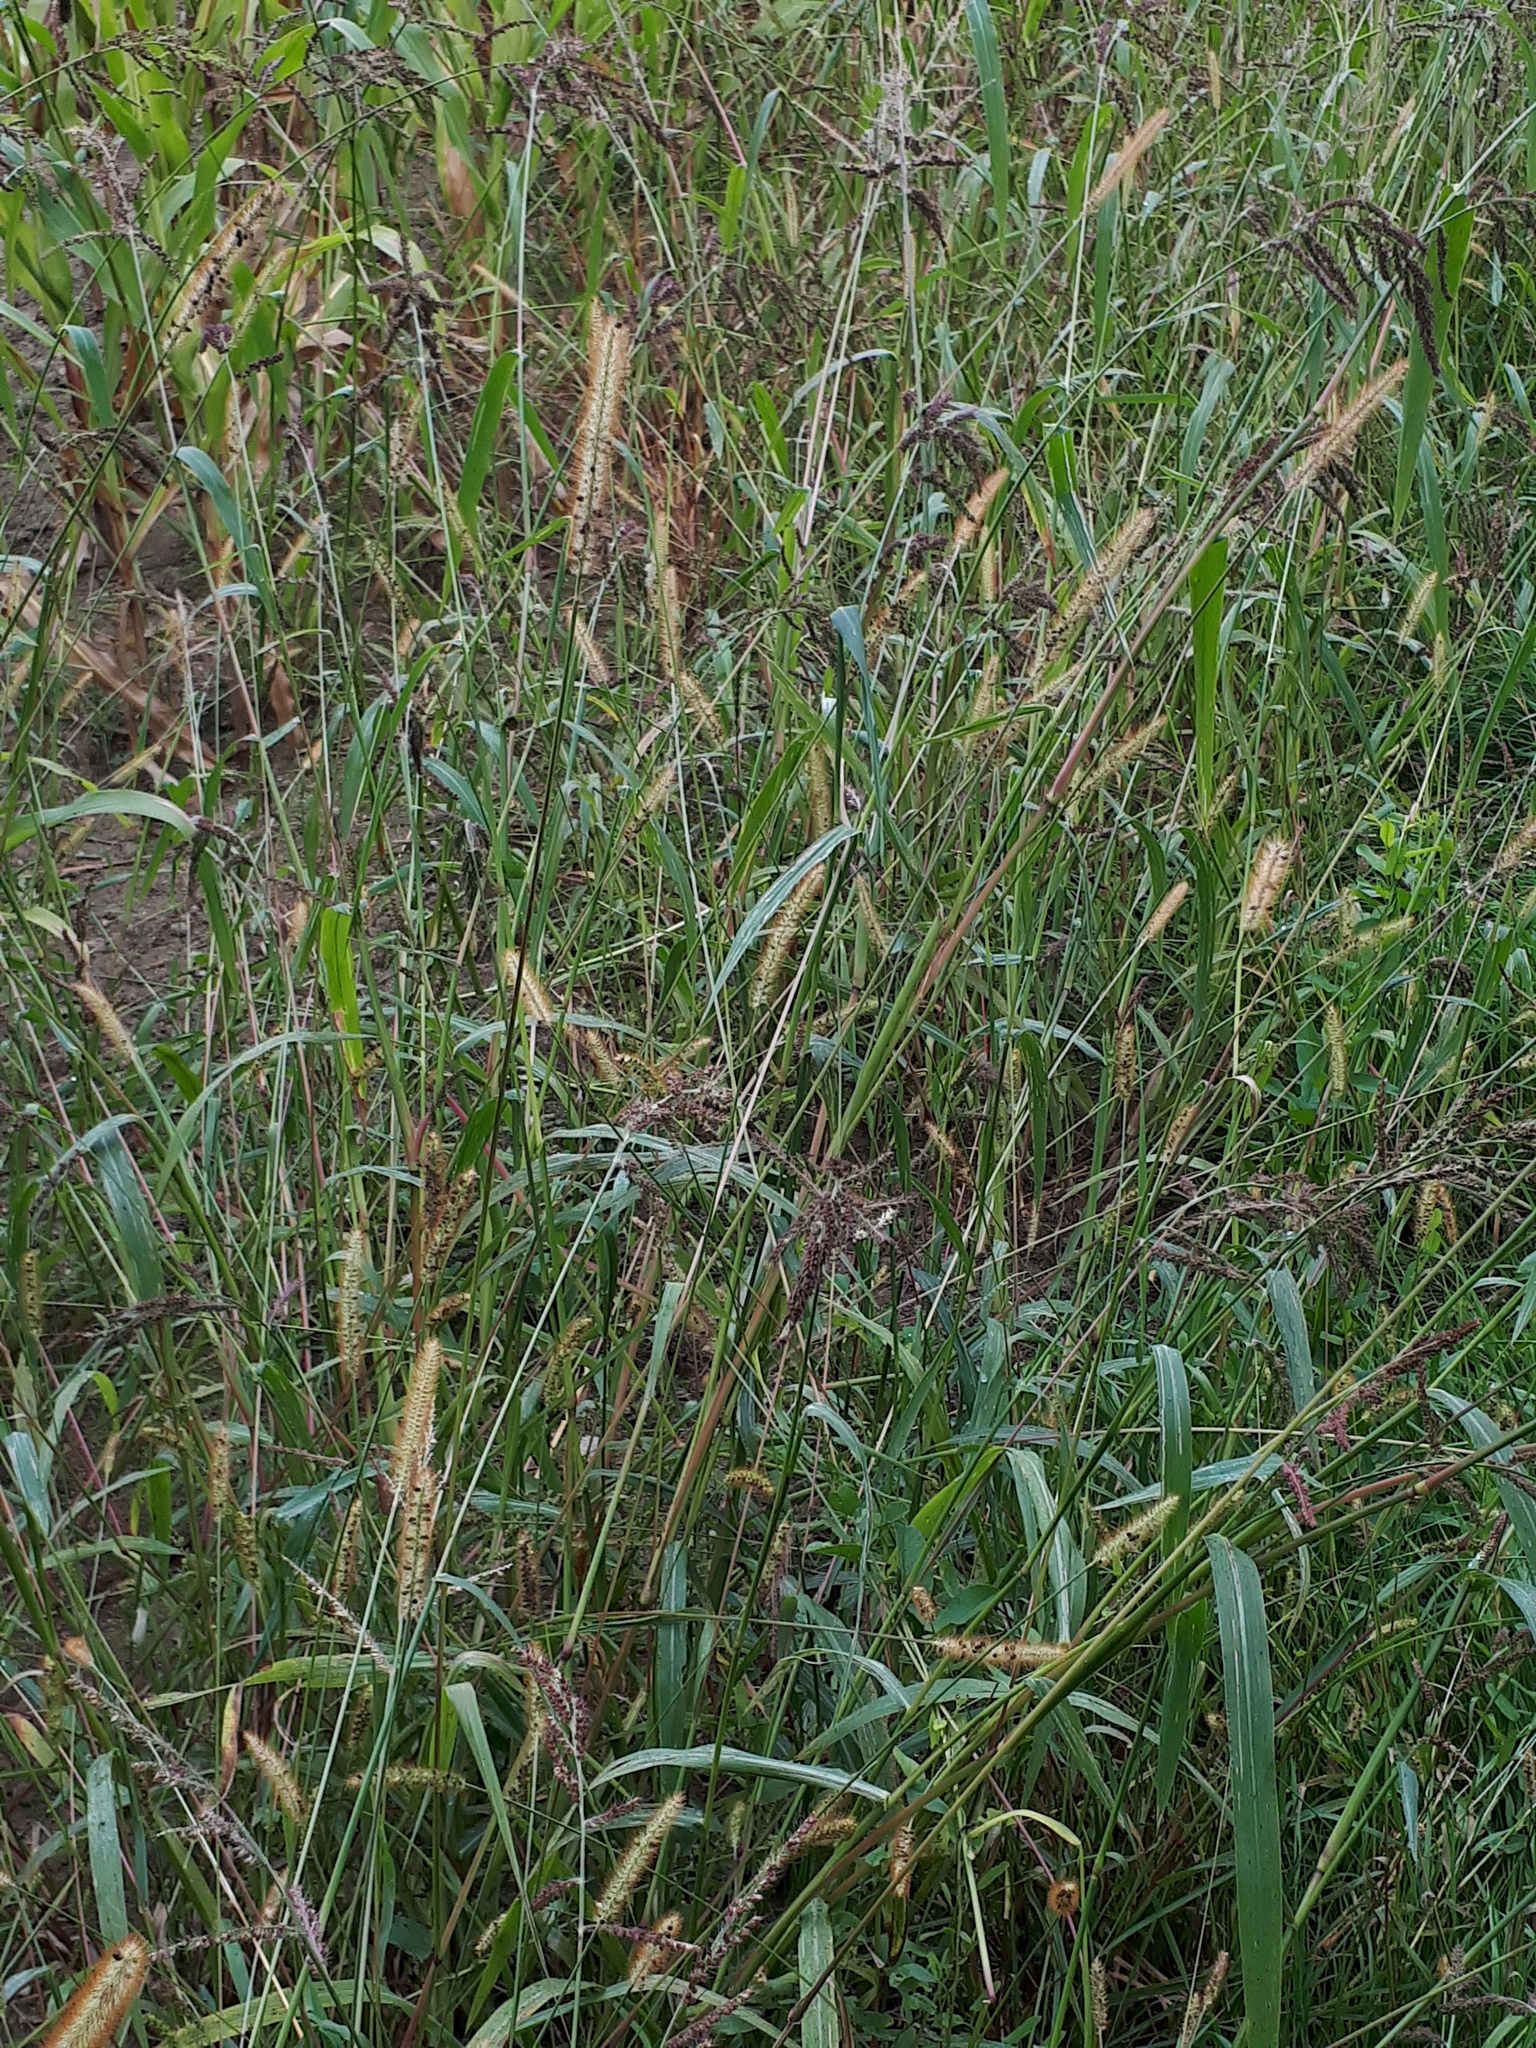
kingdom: Plantae
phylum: Tracheophyta
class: Liliopsida
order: Poales
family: Poaceae
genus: Setaria
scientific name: Setaria pumila
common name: Yellow bristle-grass
